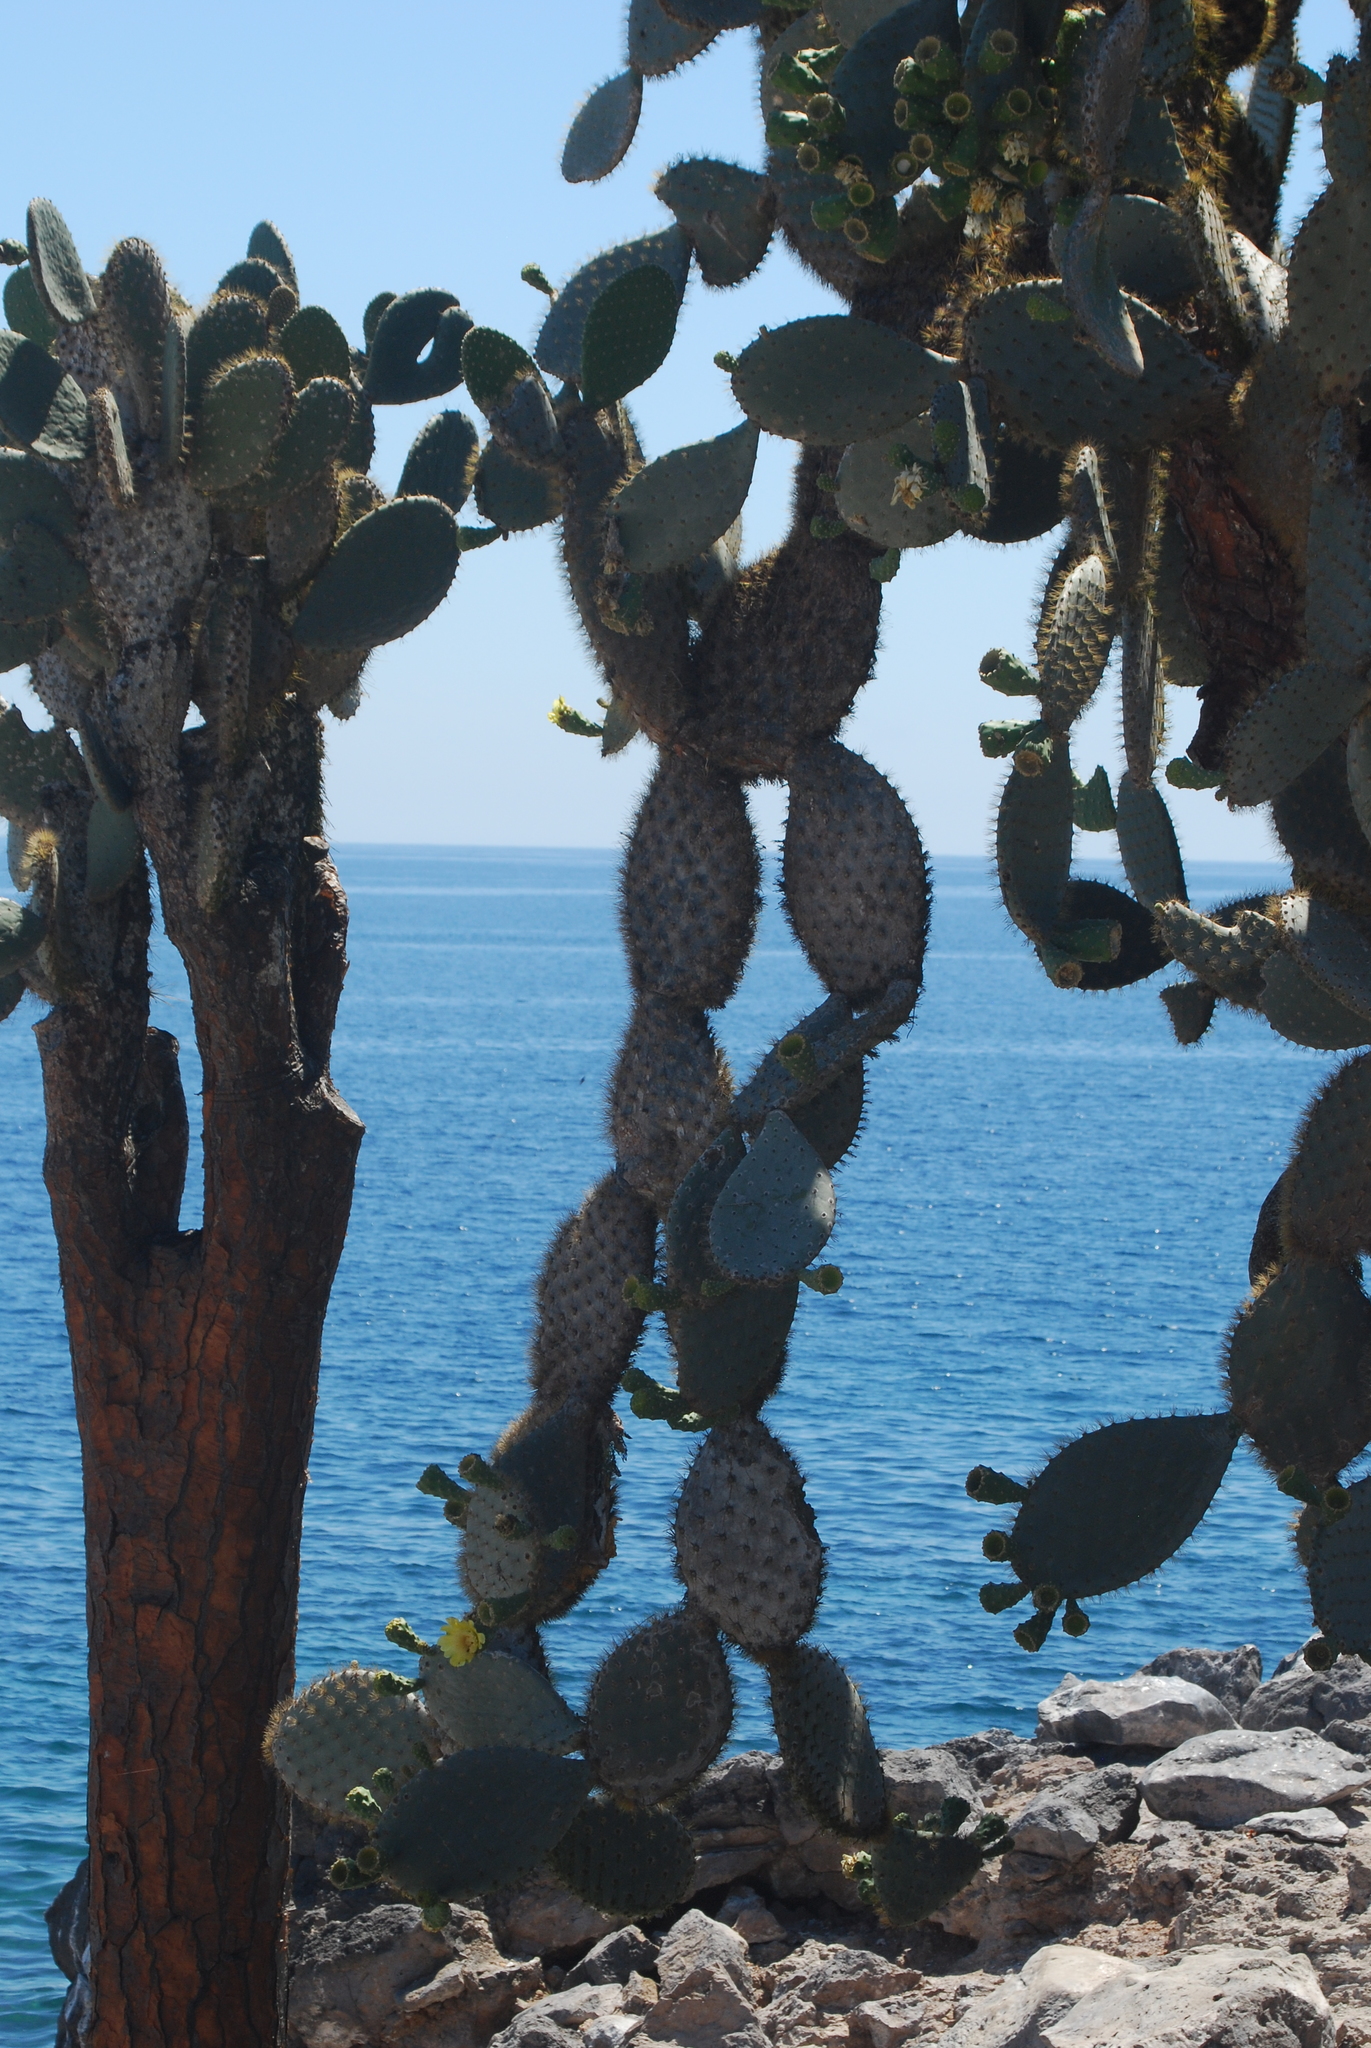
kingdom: Plantae
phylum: Tracheophyta
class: Magnoliopsida
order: Caryophyllales
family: Cactaceae
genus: Opuntia
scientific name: Opuntia galapageia
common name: Galápagos prickly pear
